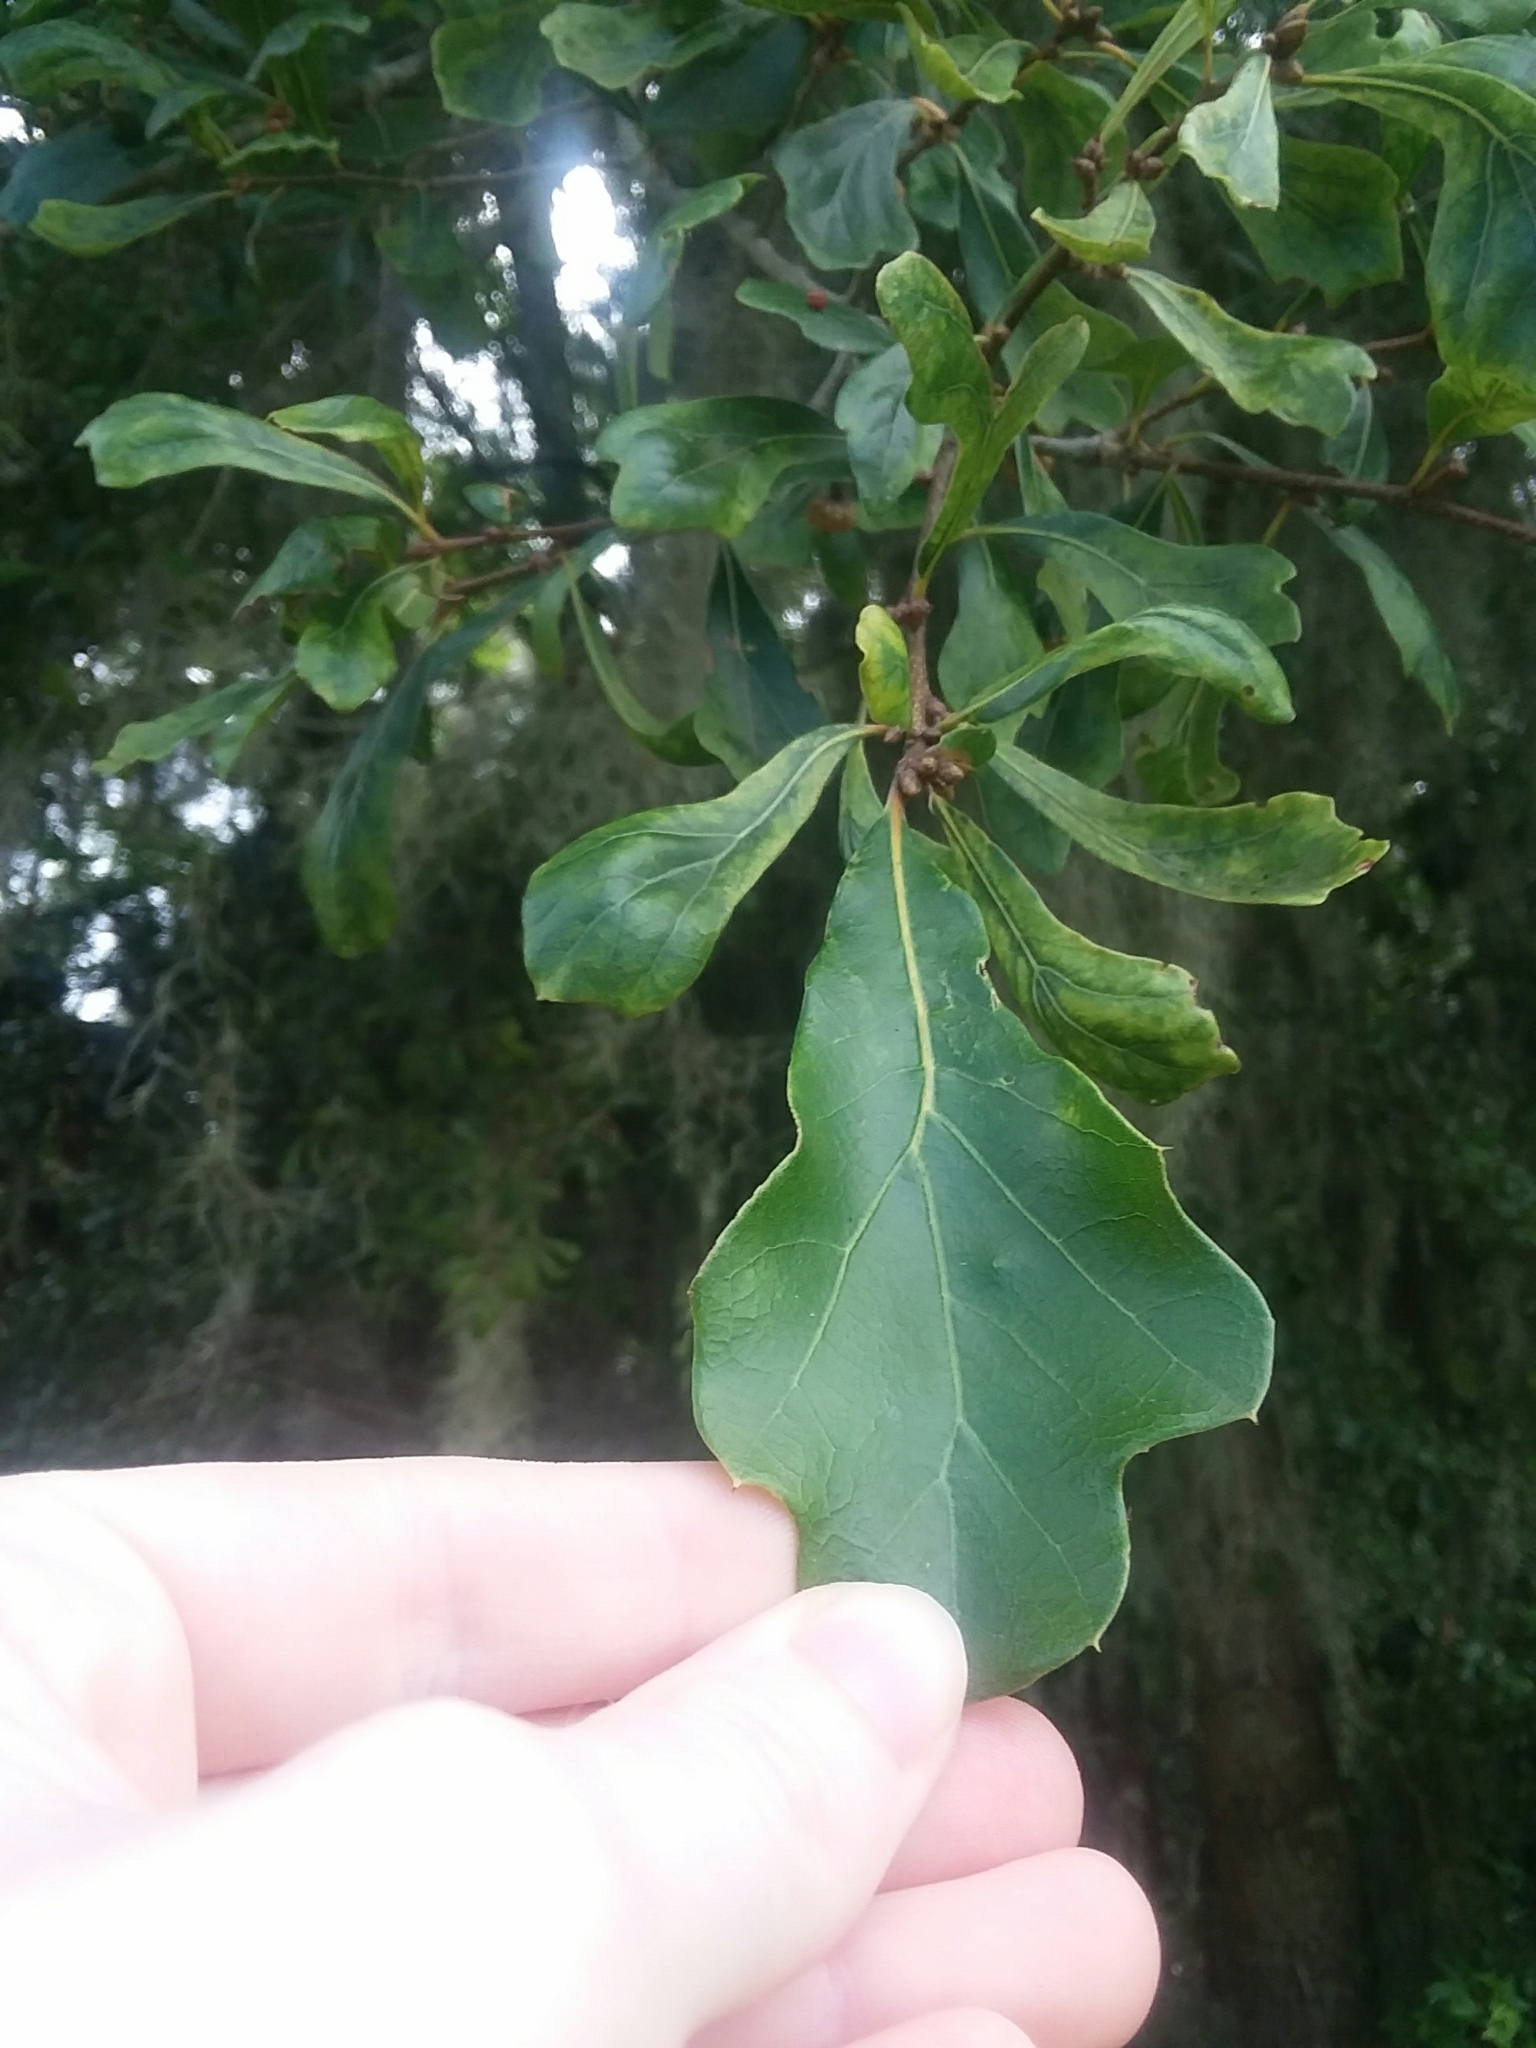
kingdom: Plantae
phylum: Tracheophyta
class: Magnoliopsida
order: Fagales
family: Fagaceae
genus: Quercus
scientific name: Quercus nigra
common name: Water oak
